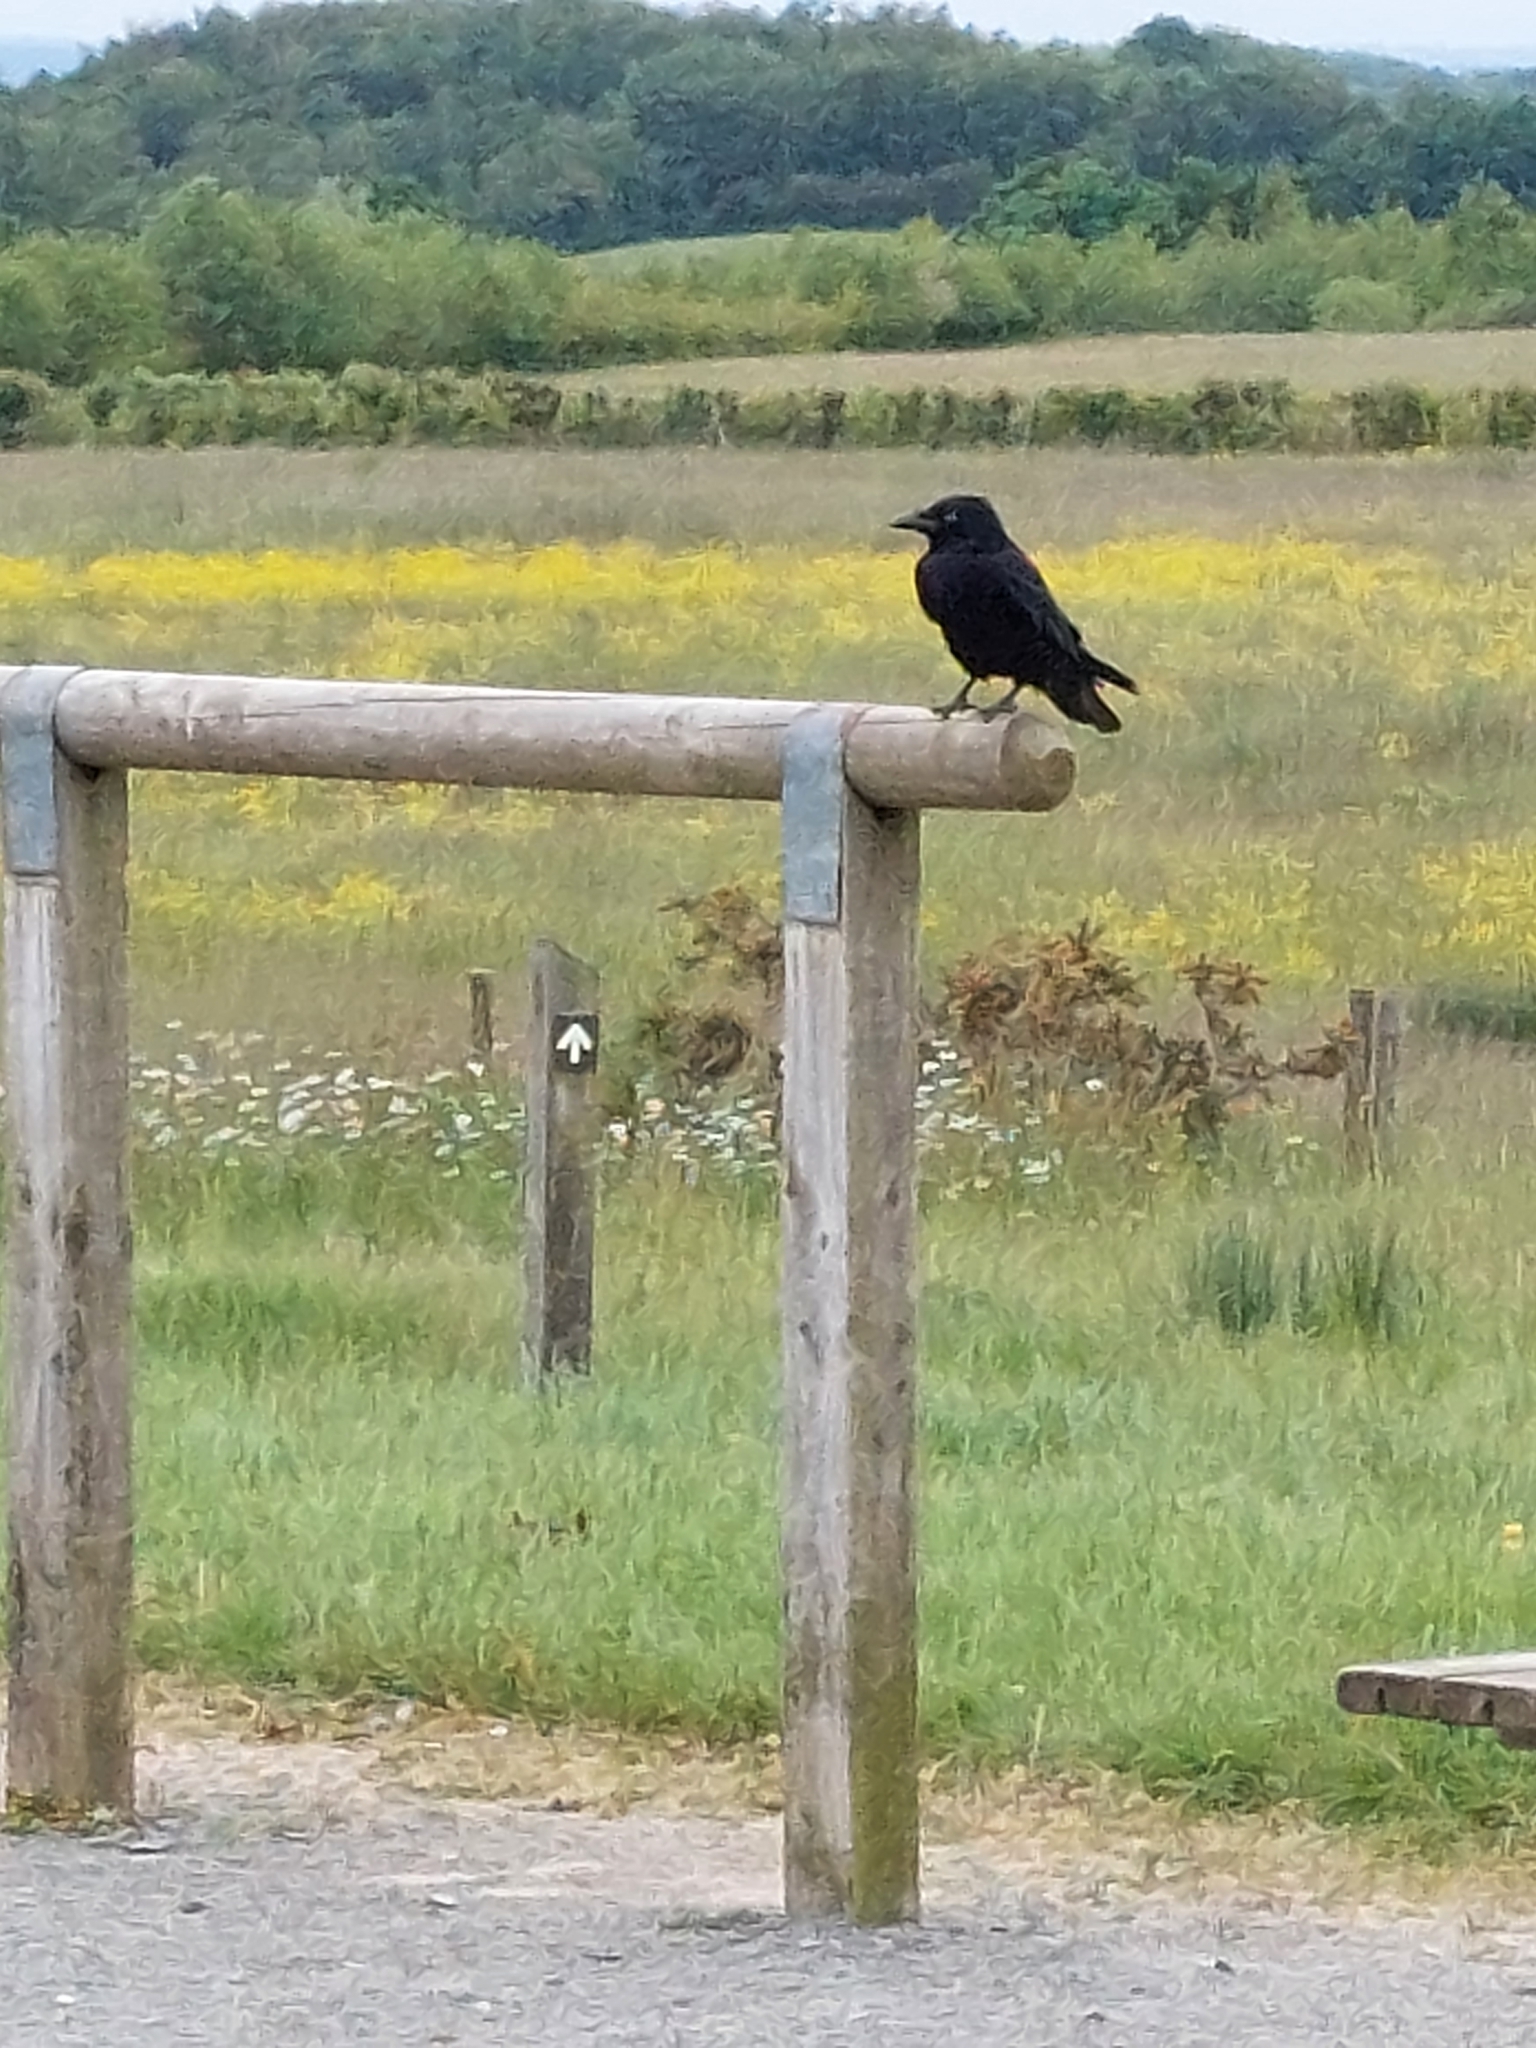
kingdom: Animalia
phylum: Chordata
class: Aves
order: Passeriformes
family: Corvidae
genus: Corvus
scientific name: Corvus corone
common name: Carrion crow
